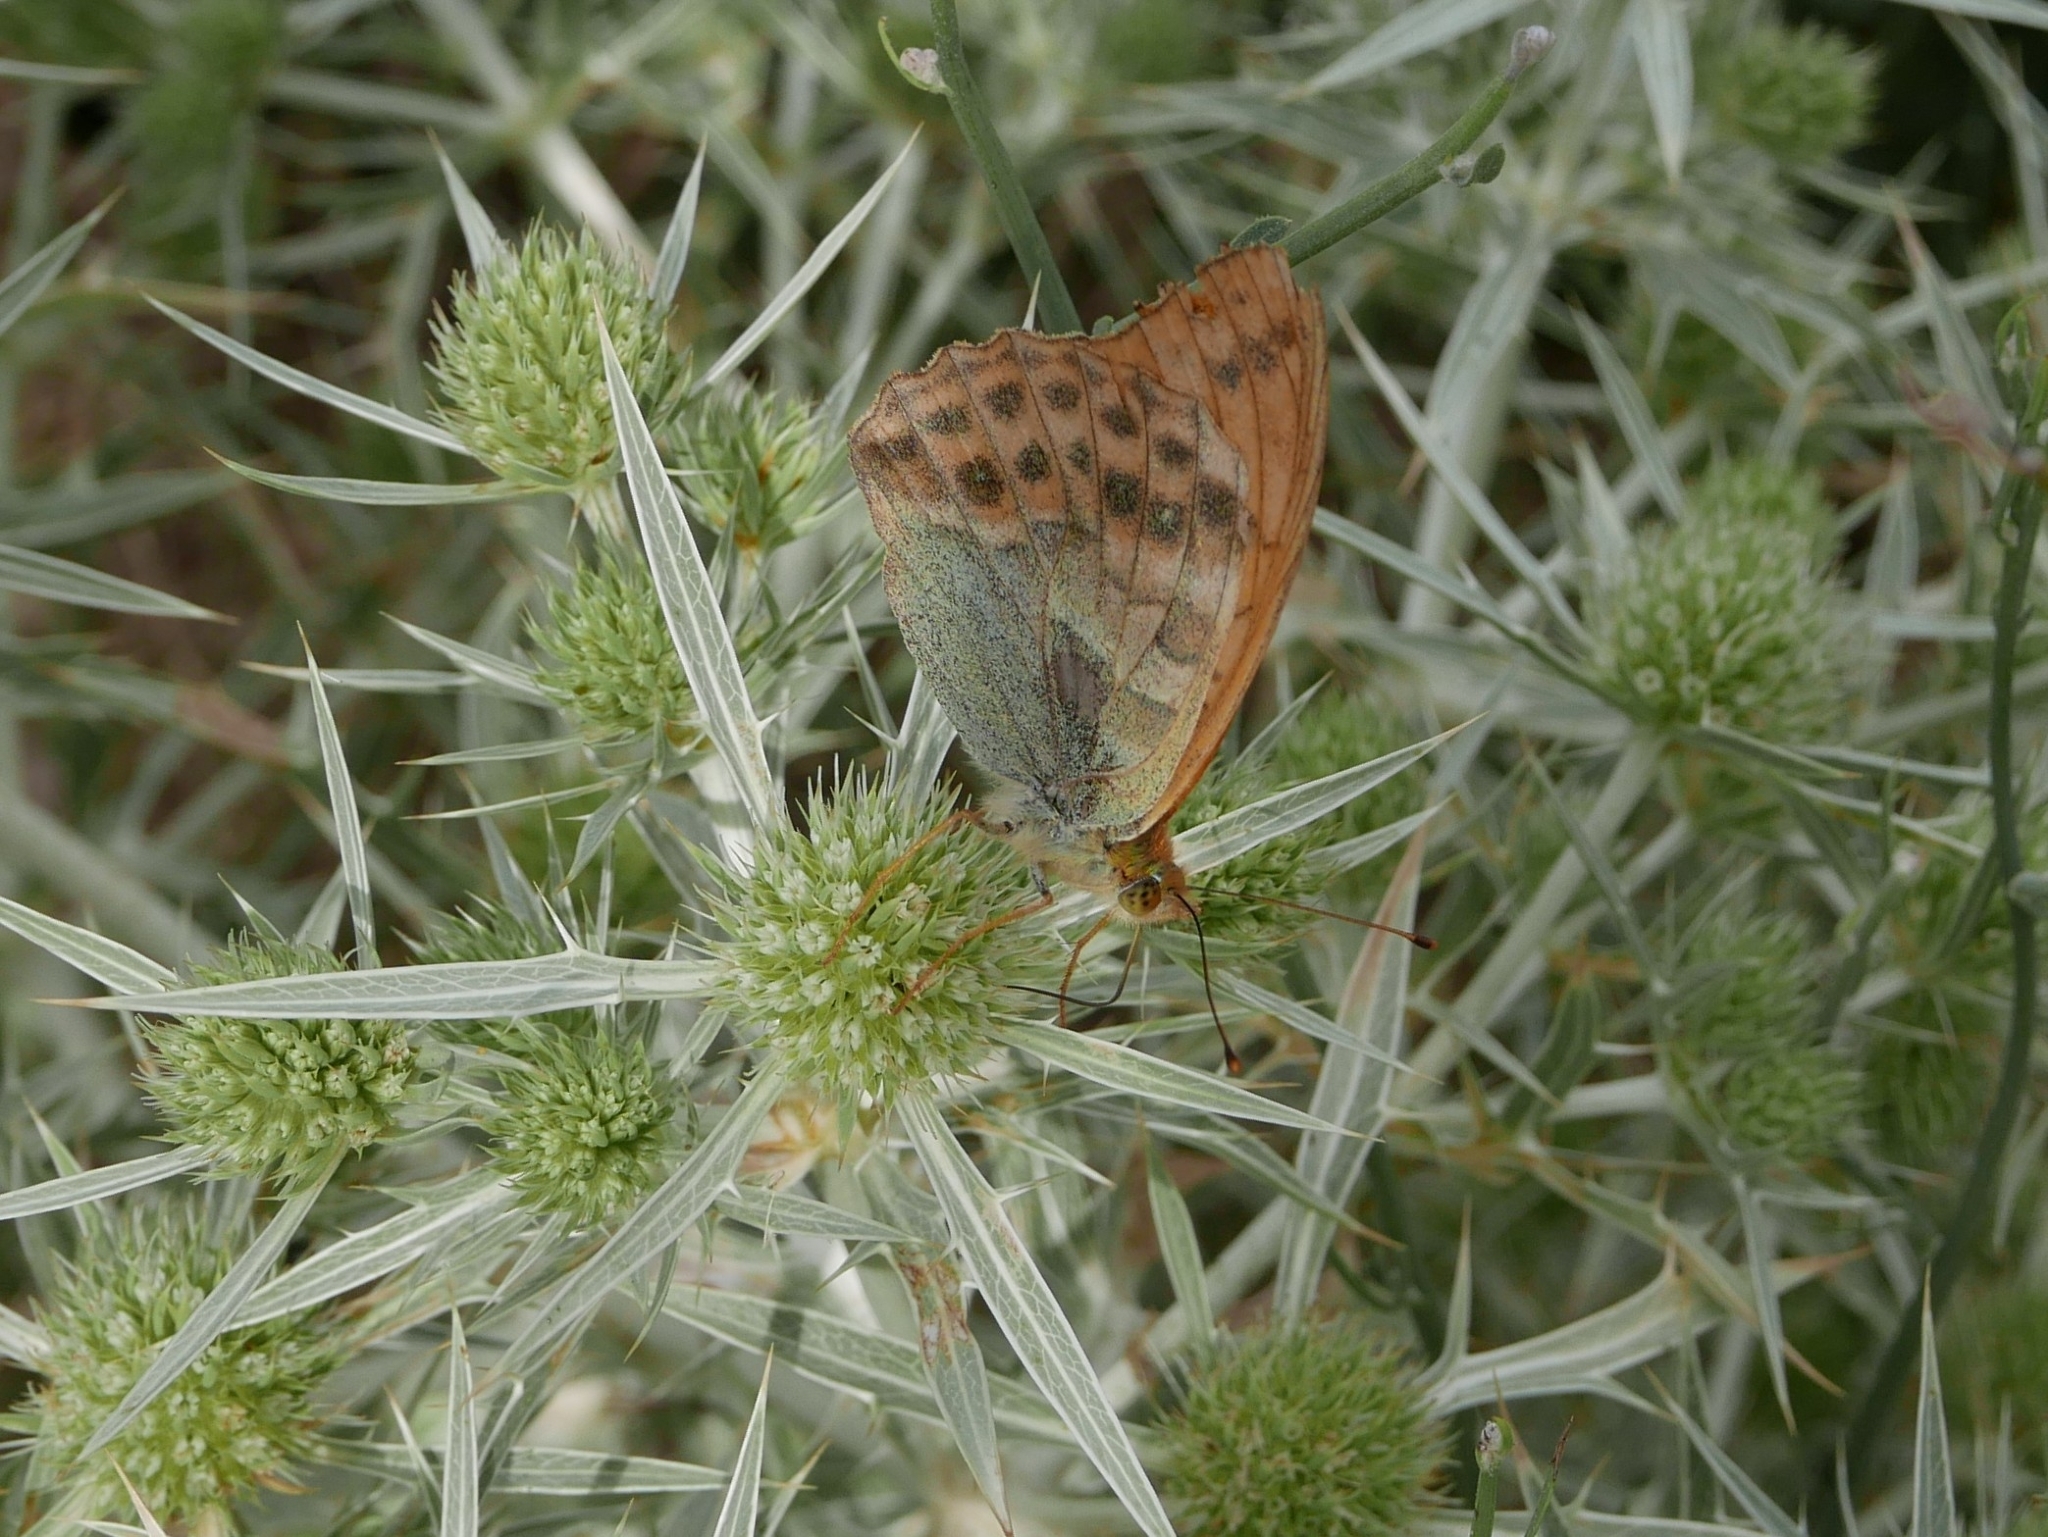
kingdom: Animalia
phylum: Arthropoda
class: Insecta
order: Lepidoptera
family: Nymphalidae
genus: Argynnis
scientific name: Argynnis paphia
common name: Silver-washed fritillary
